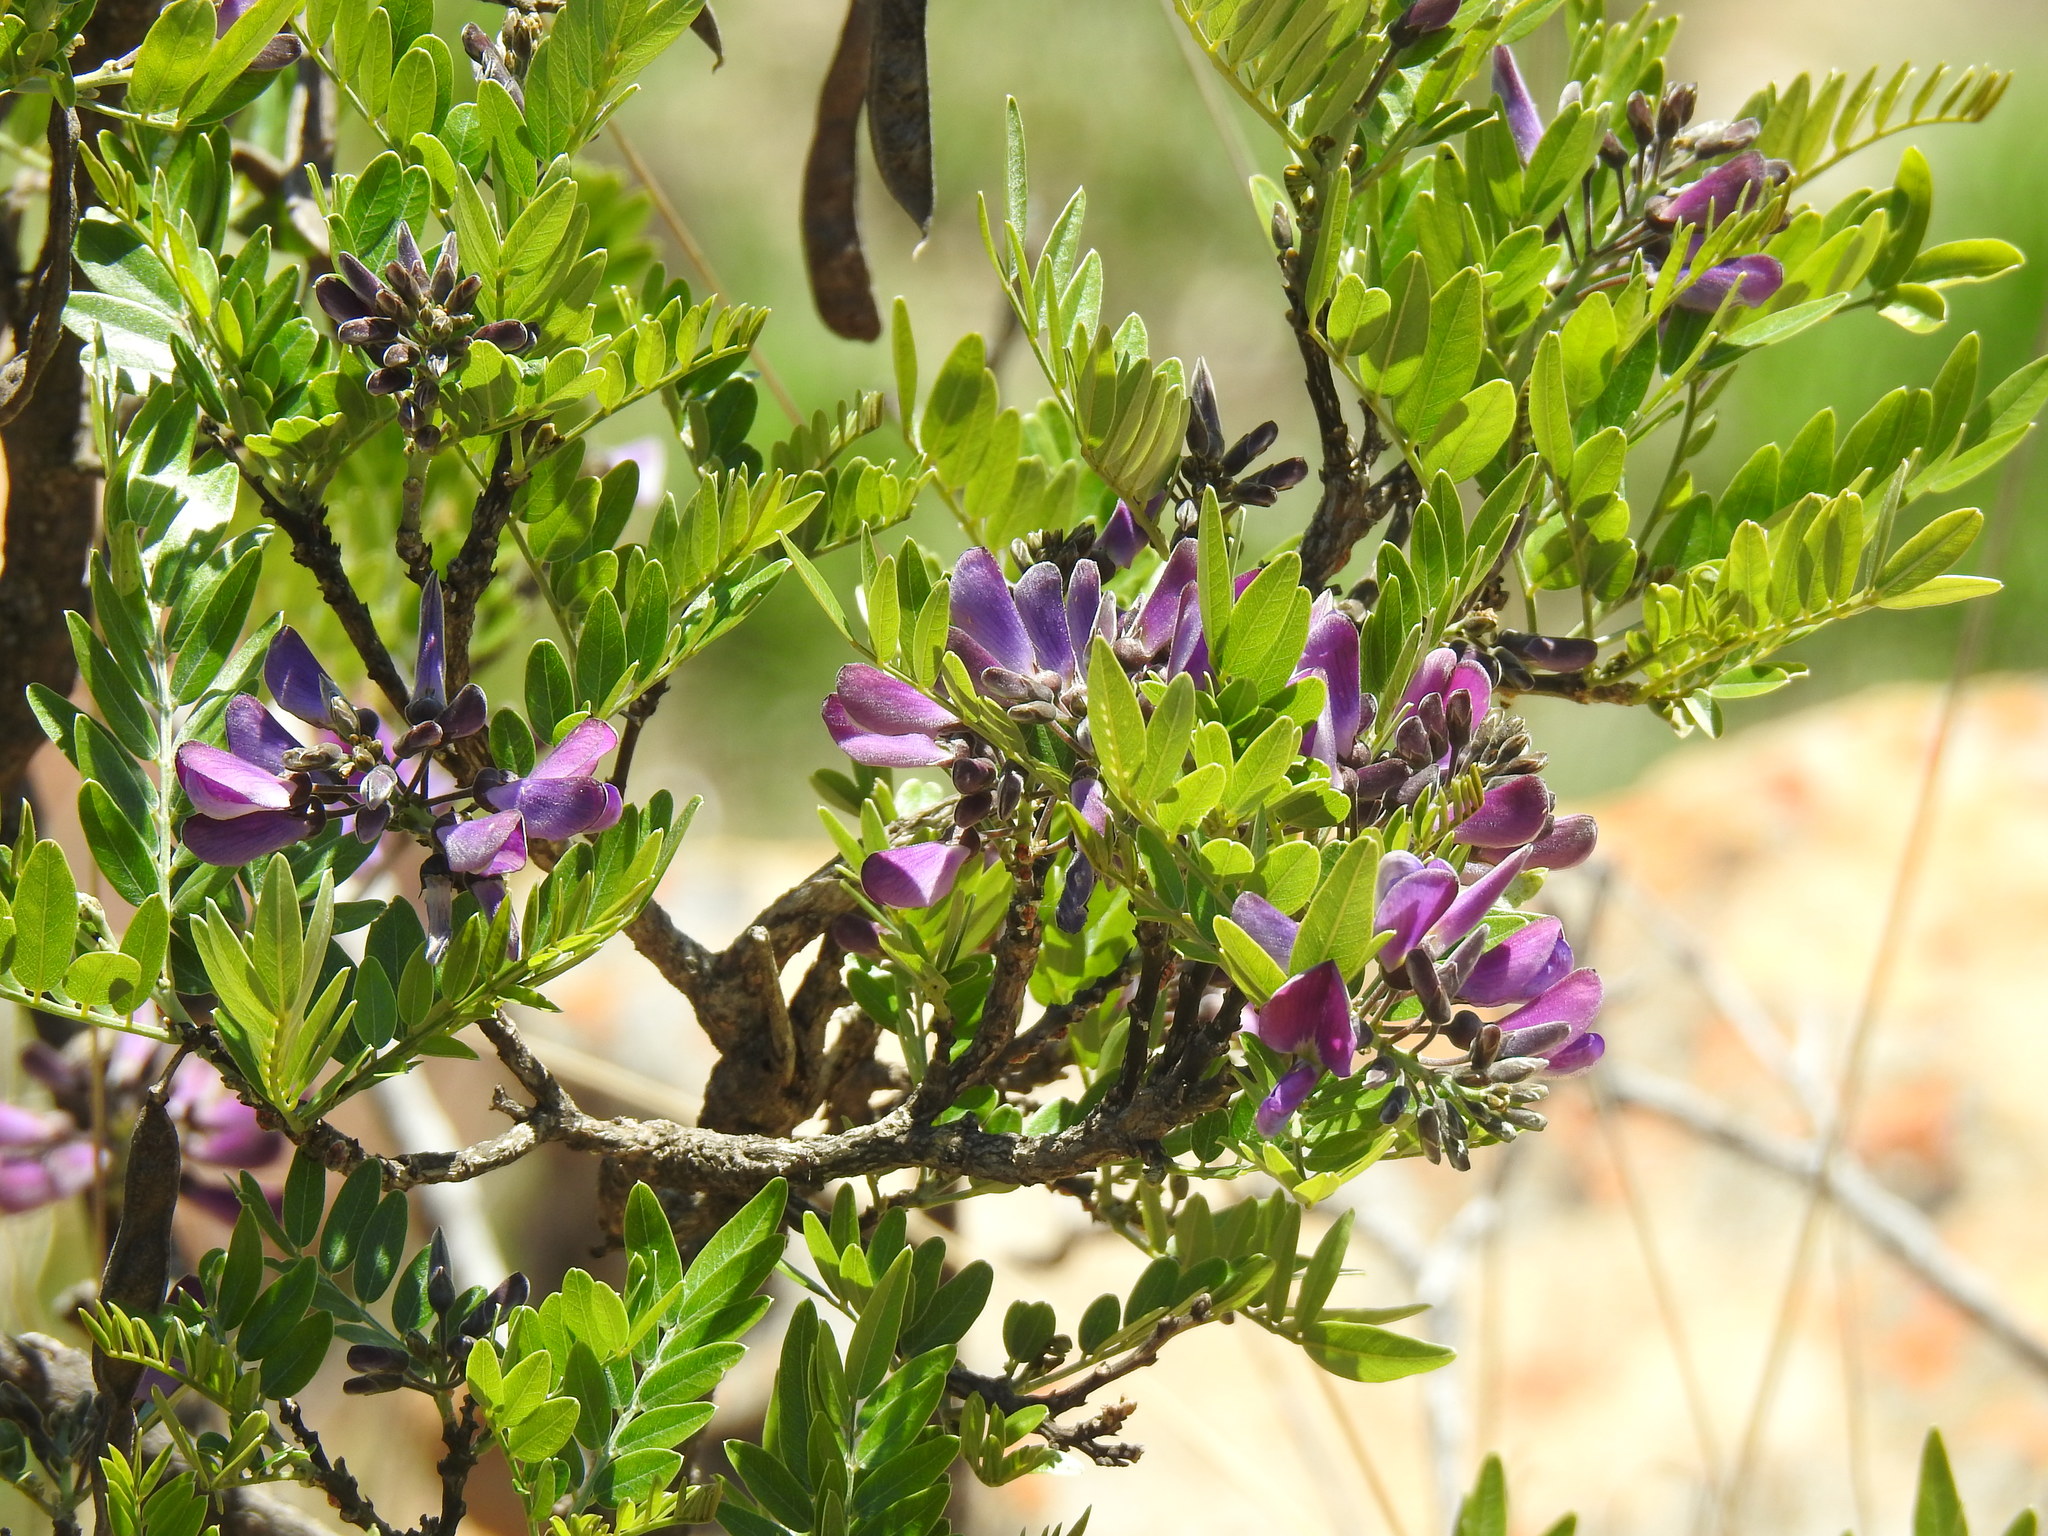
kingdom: Plantae
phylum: Tracheophyta
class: Magnoliopsida
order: Fabales
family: Fabaceae
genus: Mundulea
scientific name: Mundulea sericea
